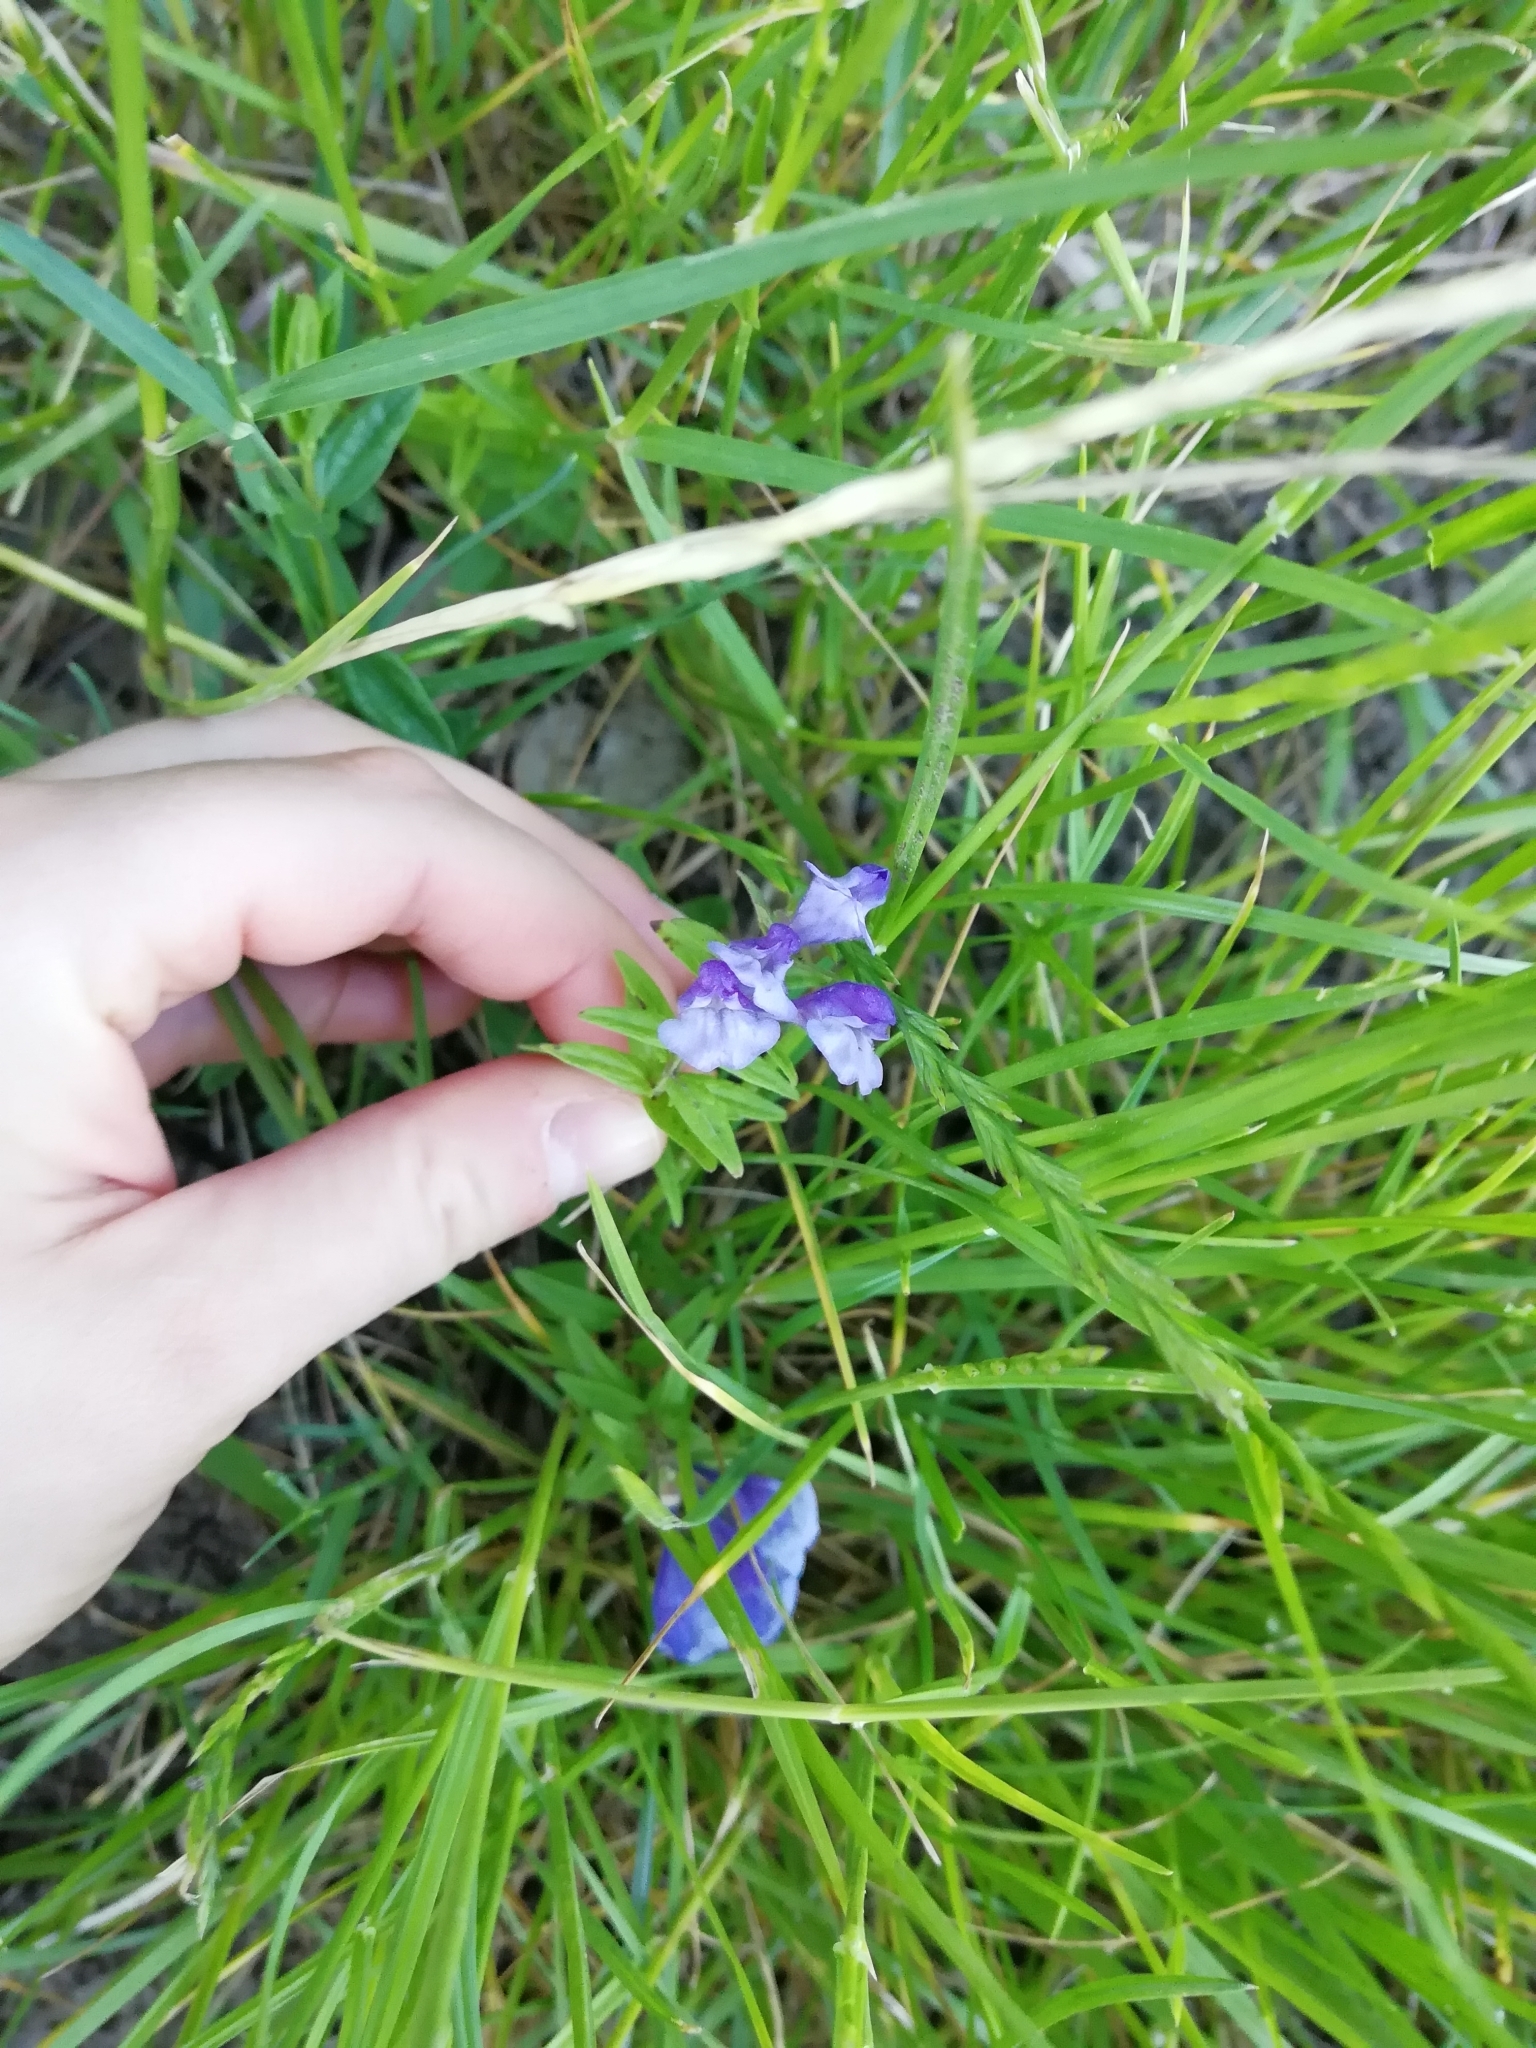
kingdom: Plantae
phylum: Tracheophyta
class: Magnoliopsida
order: Lamiales
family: Lamiaceae
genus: Scutellaria
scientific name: Scutellaria hastifolia
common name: Norfolk skullcap
